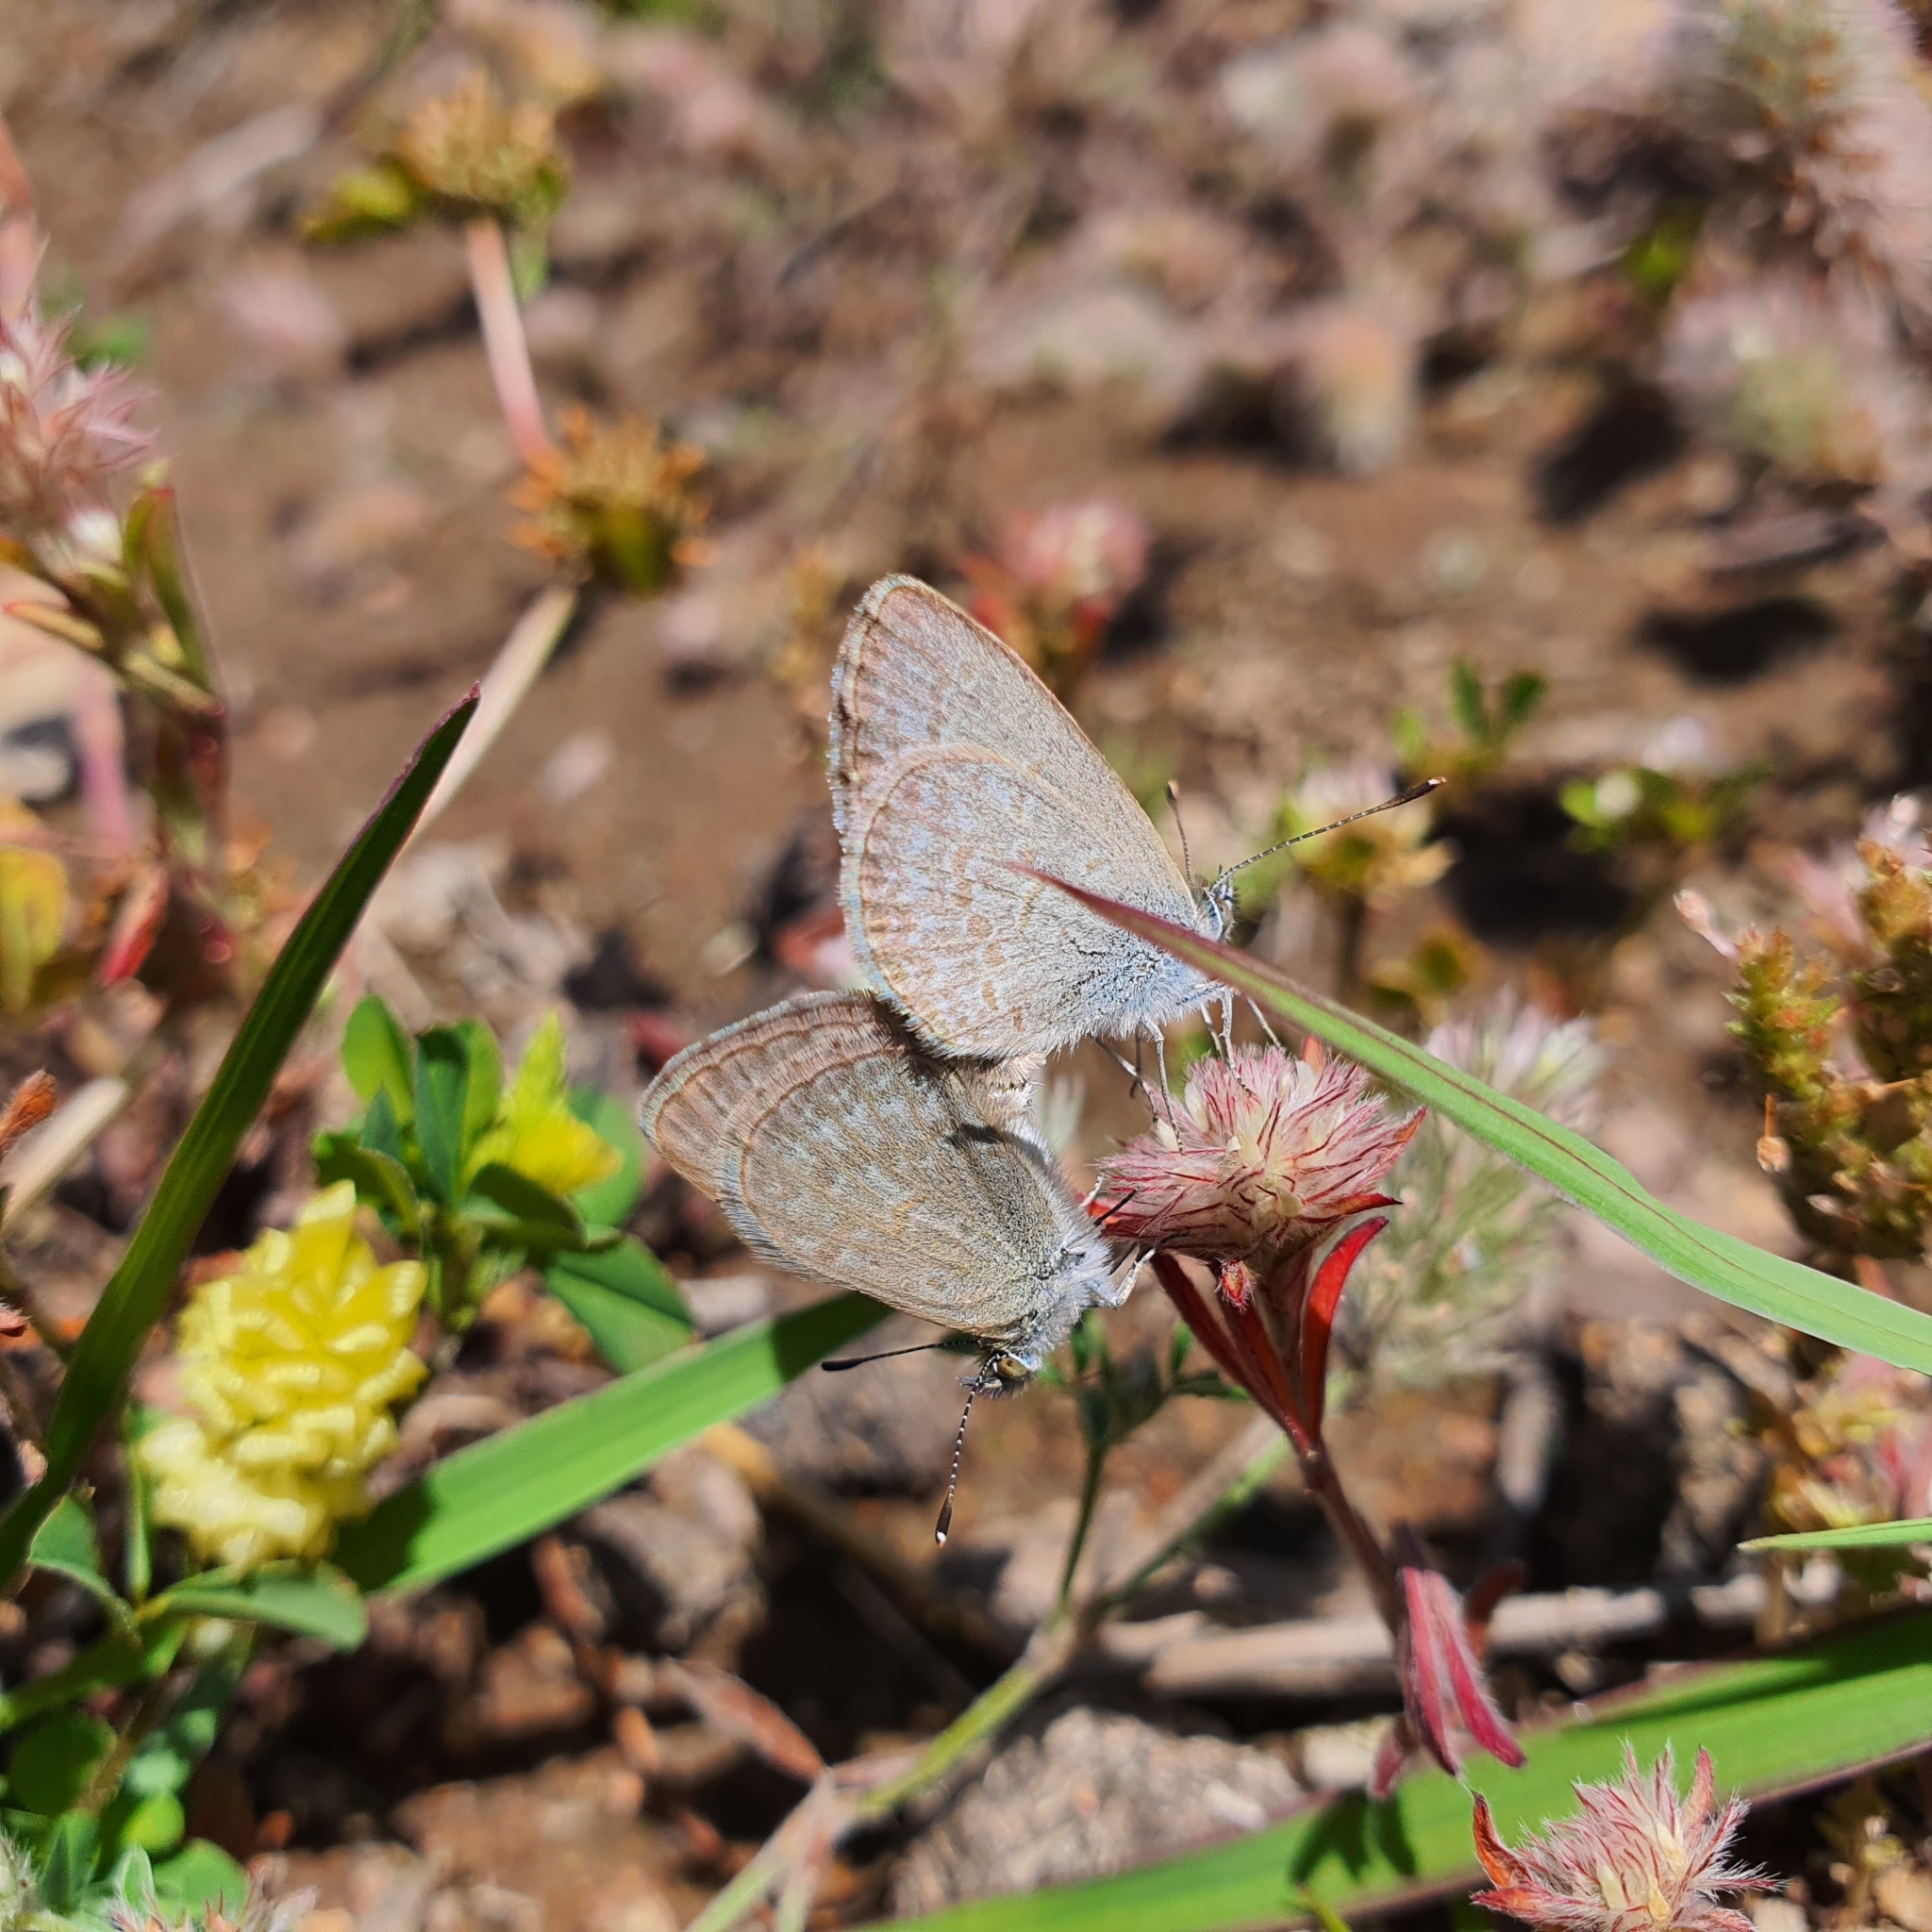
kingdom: Animalia
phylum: Arthropoda
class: Insecta
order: Lepidoptera
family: Lycaenidae
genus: Zizina
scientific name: Zizina labradus
